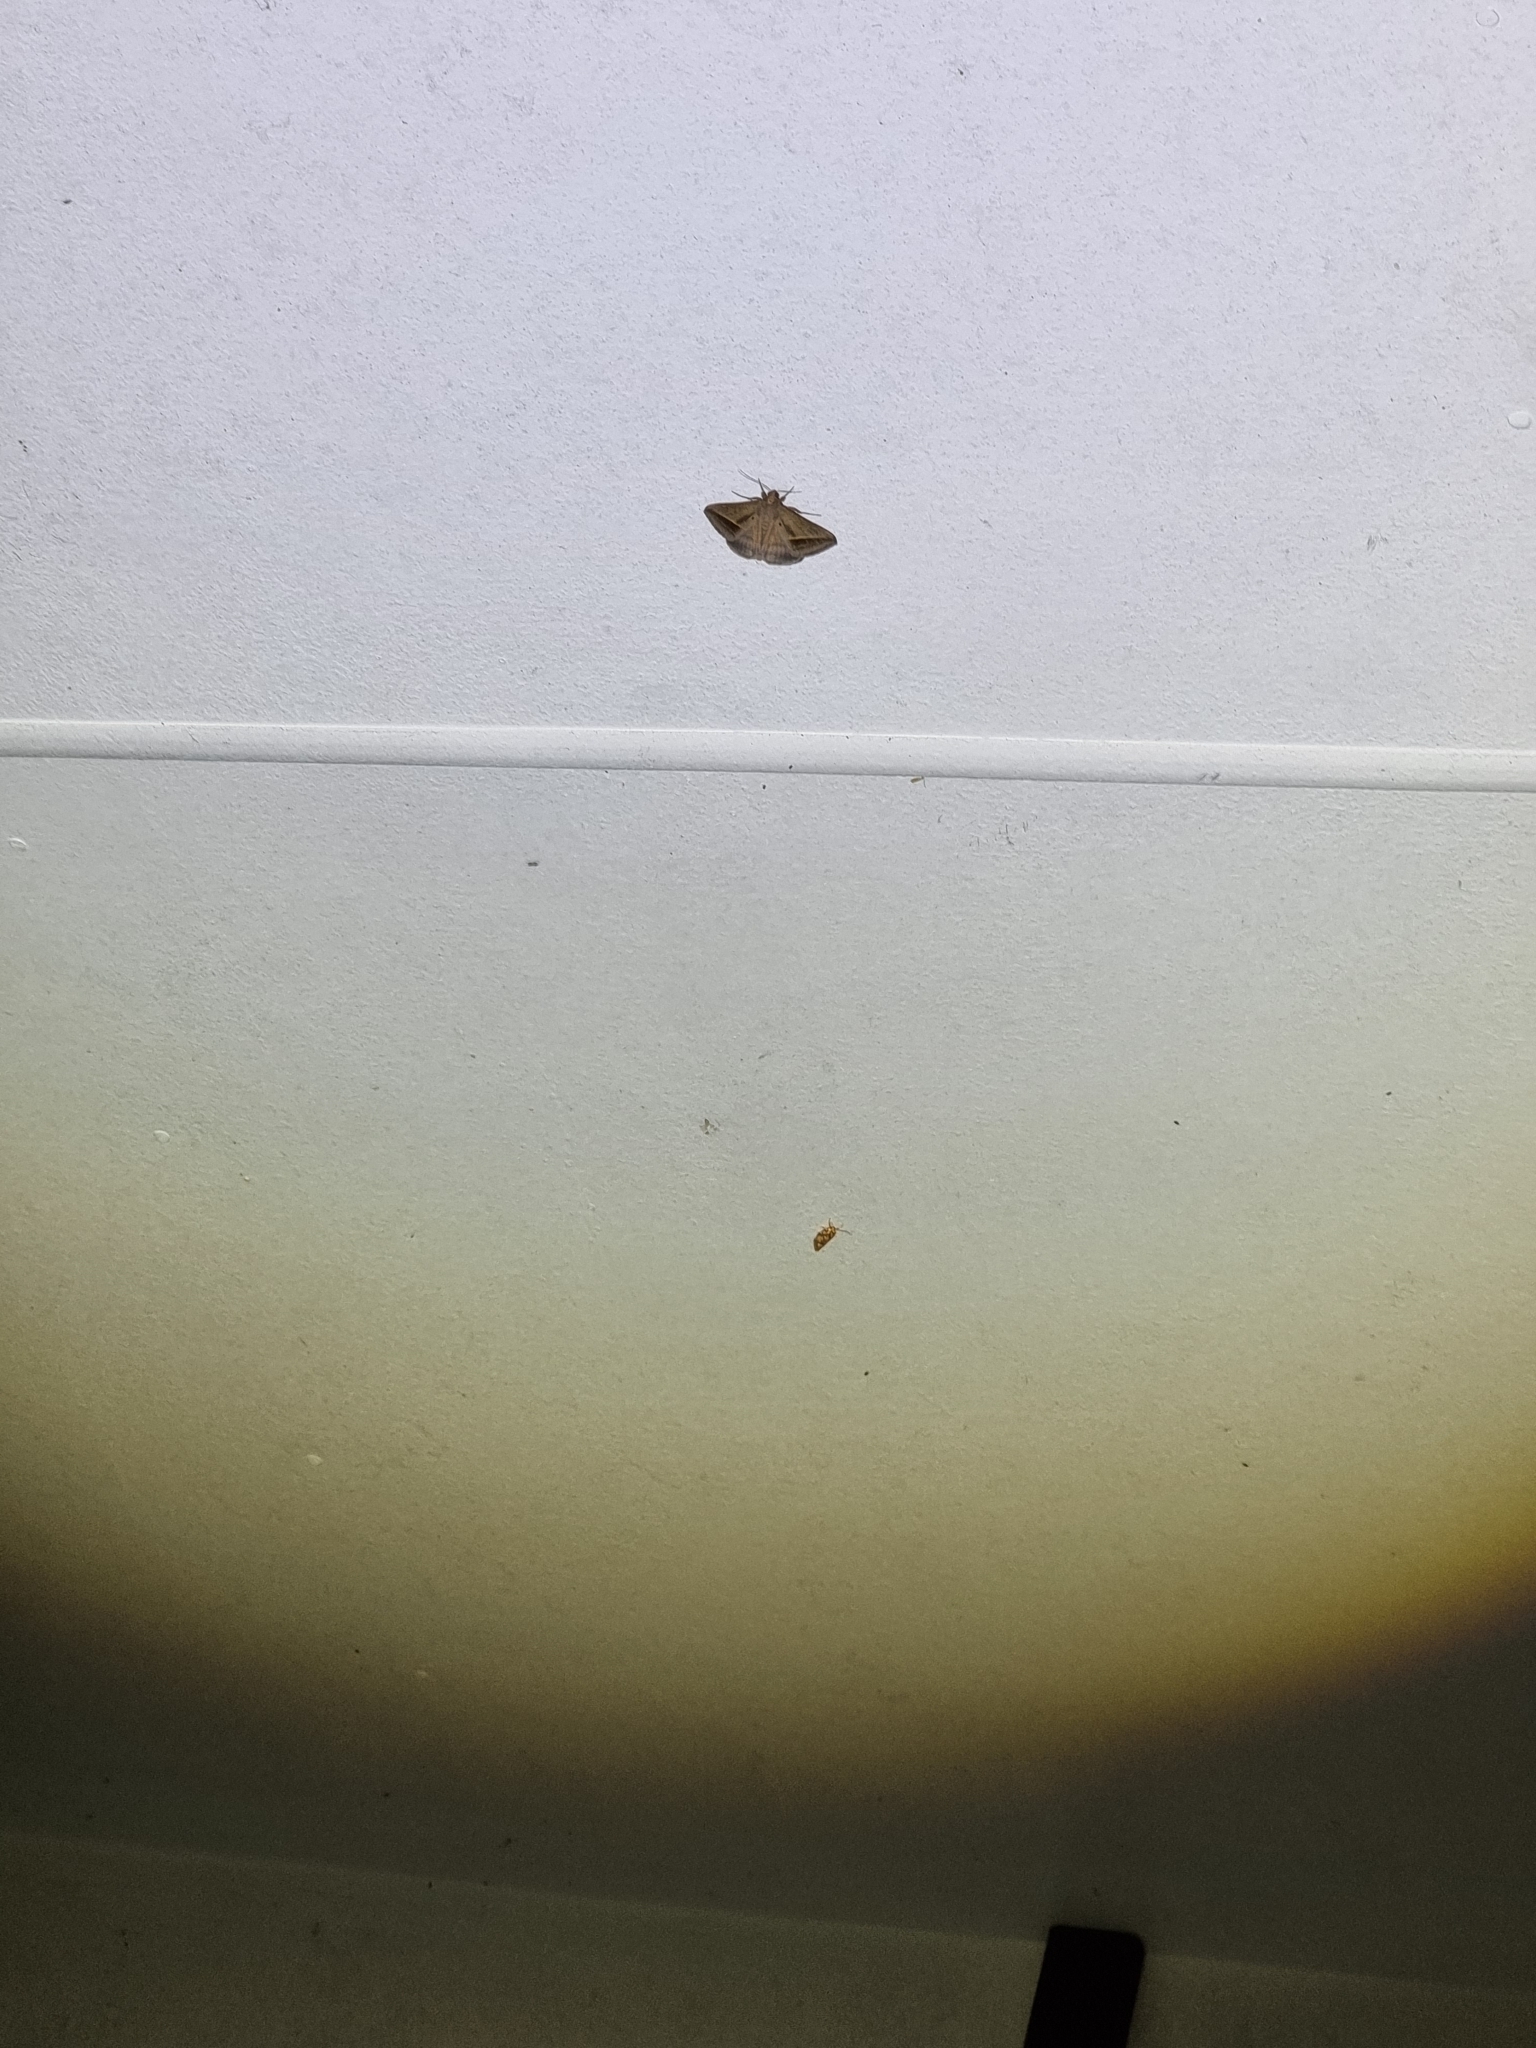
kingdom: Animalia
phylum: Arthropoda
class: Insecta
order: Lepidoptera
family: Erebidae
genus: Mocis
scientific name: Mocis frugalis
